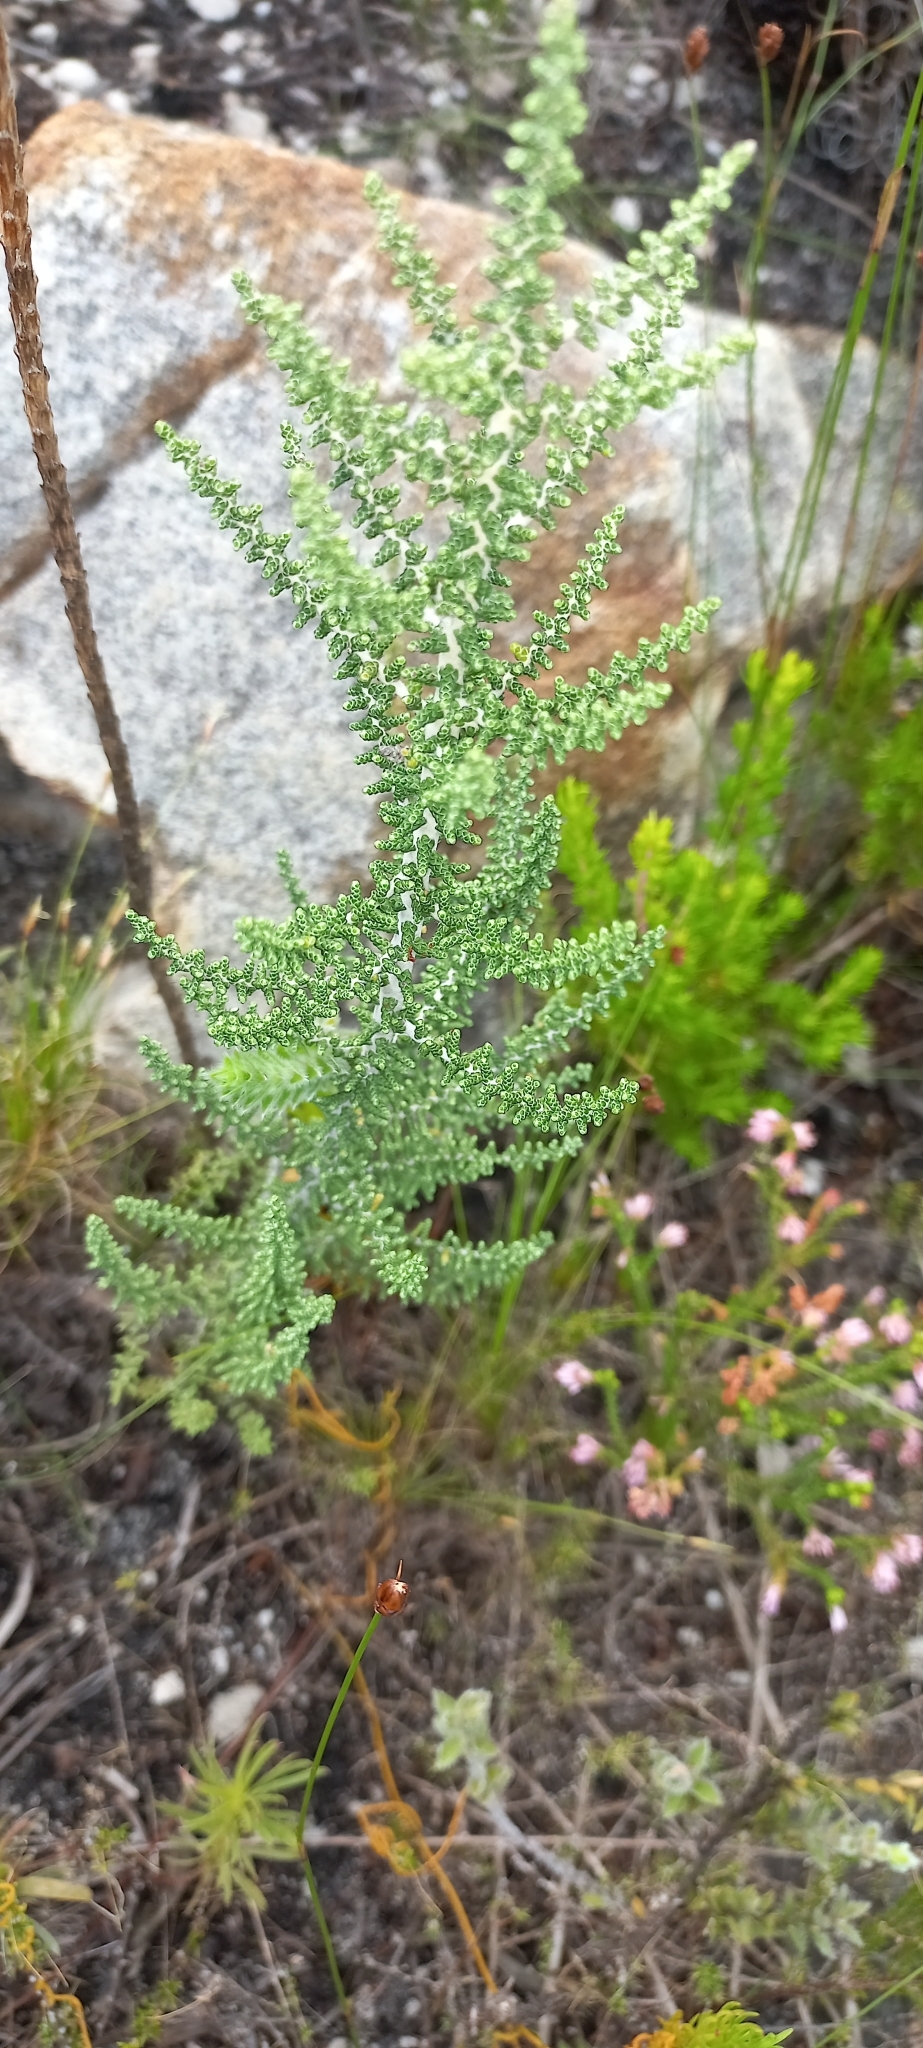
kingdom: Plantae
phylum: Tracheophyta
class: Magnoliopsida
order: Asterales
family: Asteraceae
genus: Phaenocoma
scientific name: Phaenocoma prolifera
